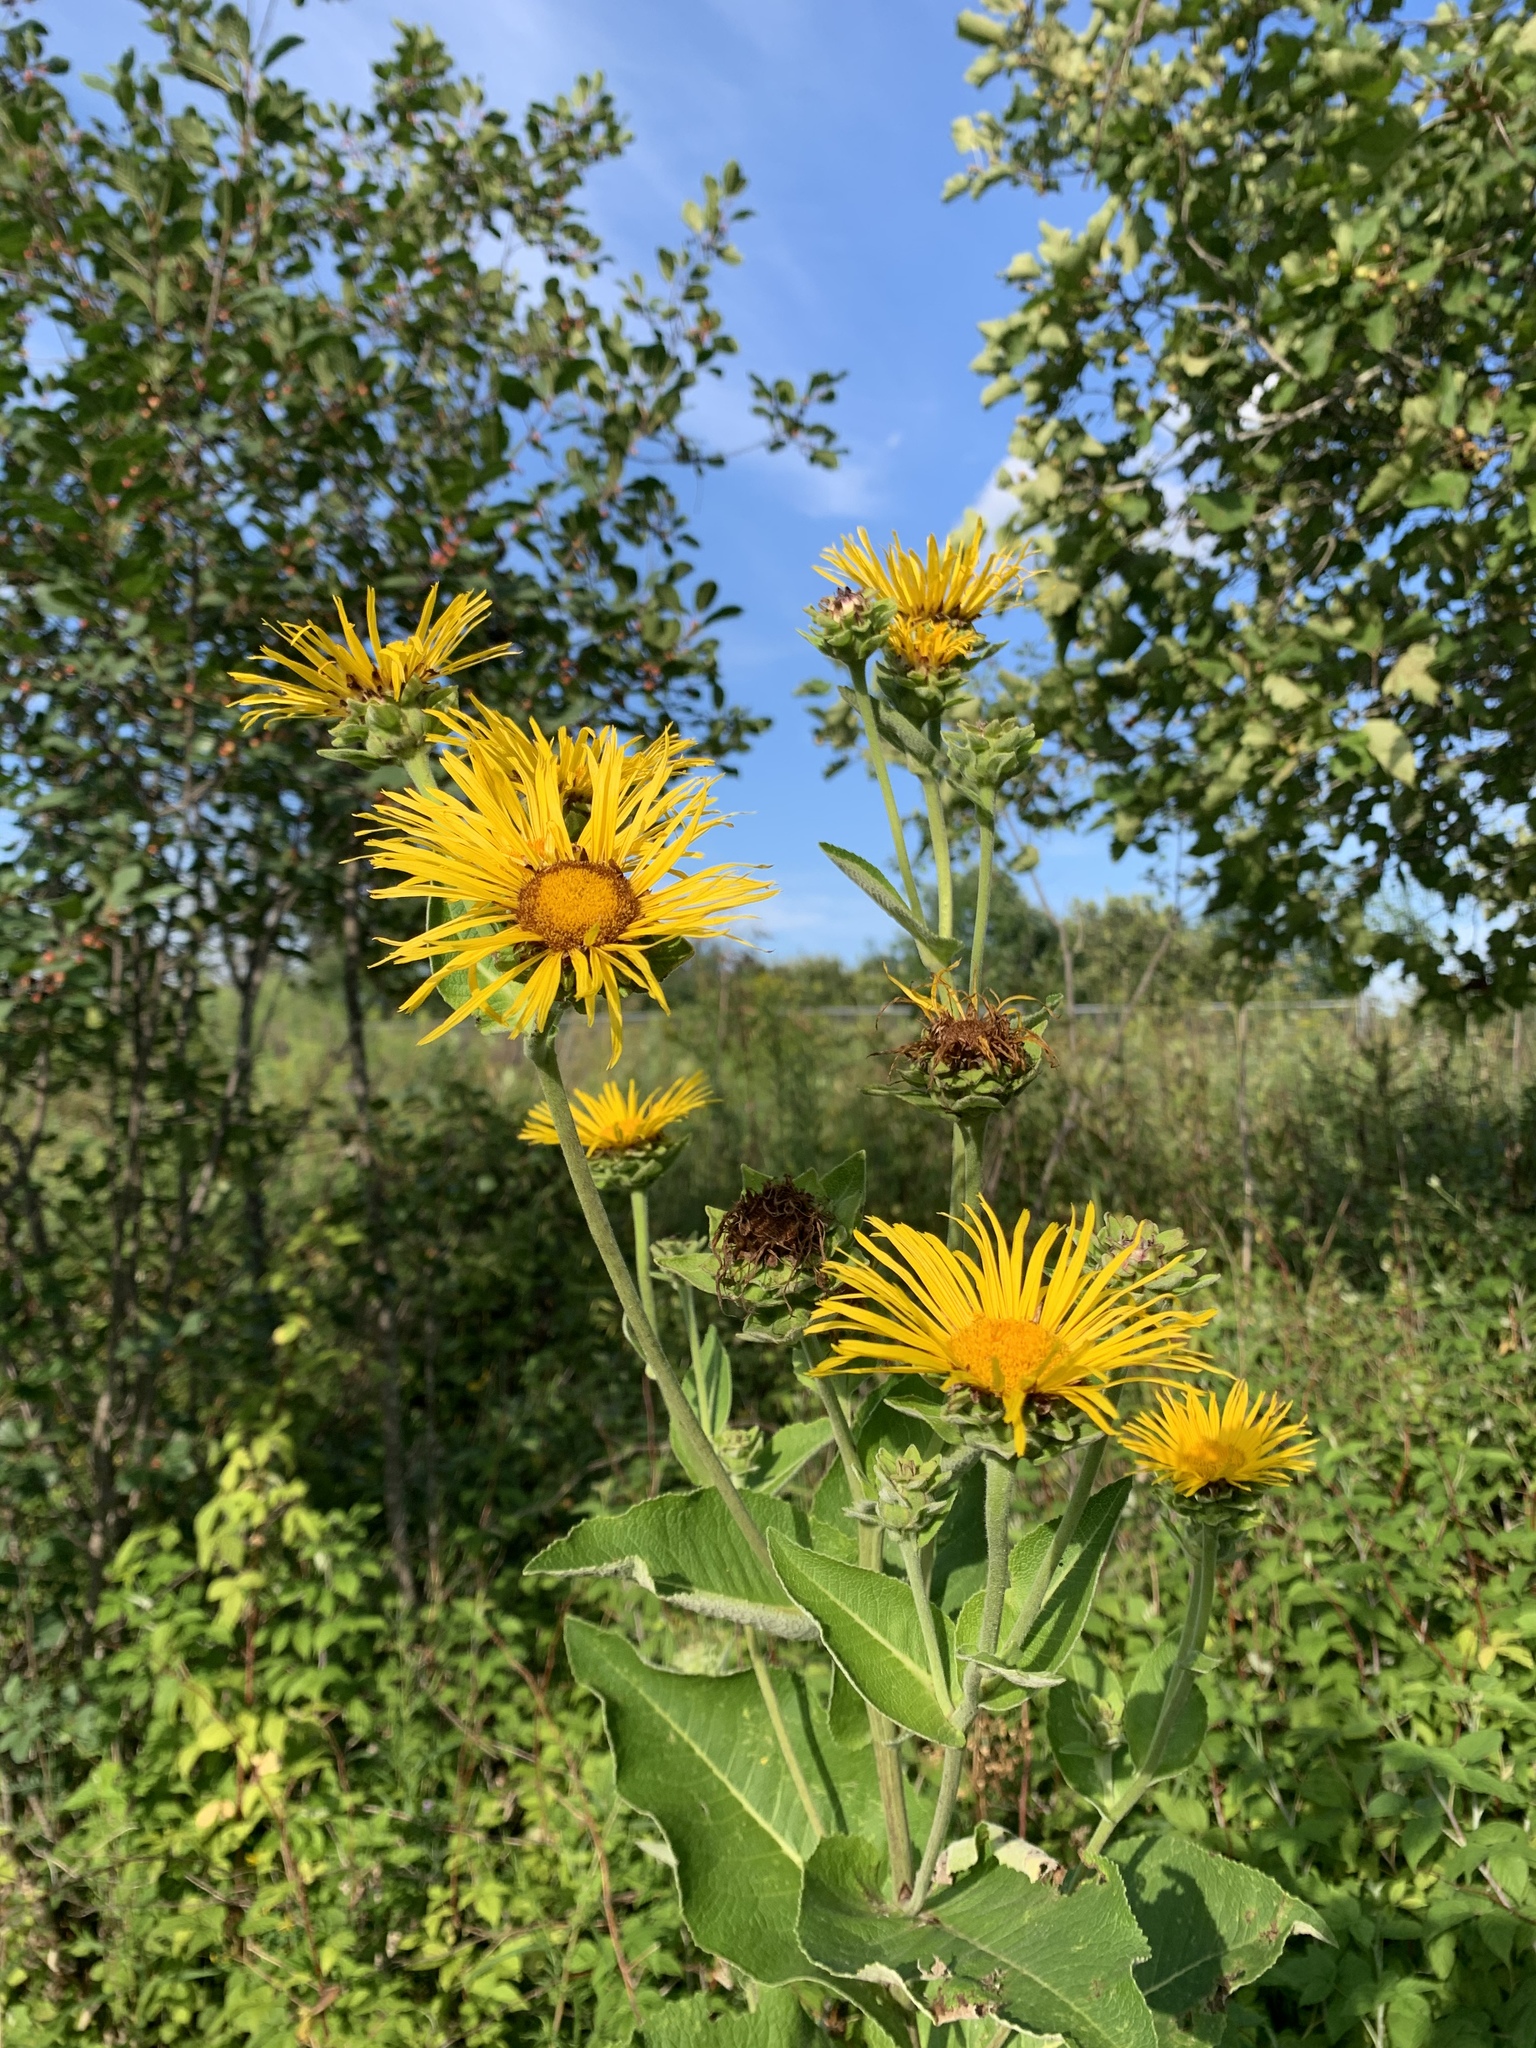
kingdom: Plantae
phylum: Tracheophyta
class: Magnoliopsida
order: Asterales
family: Asteraceae
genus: Inula
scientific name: Inula helenium
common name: Elecampane
